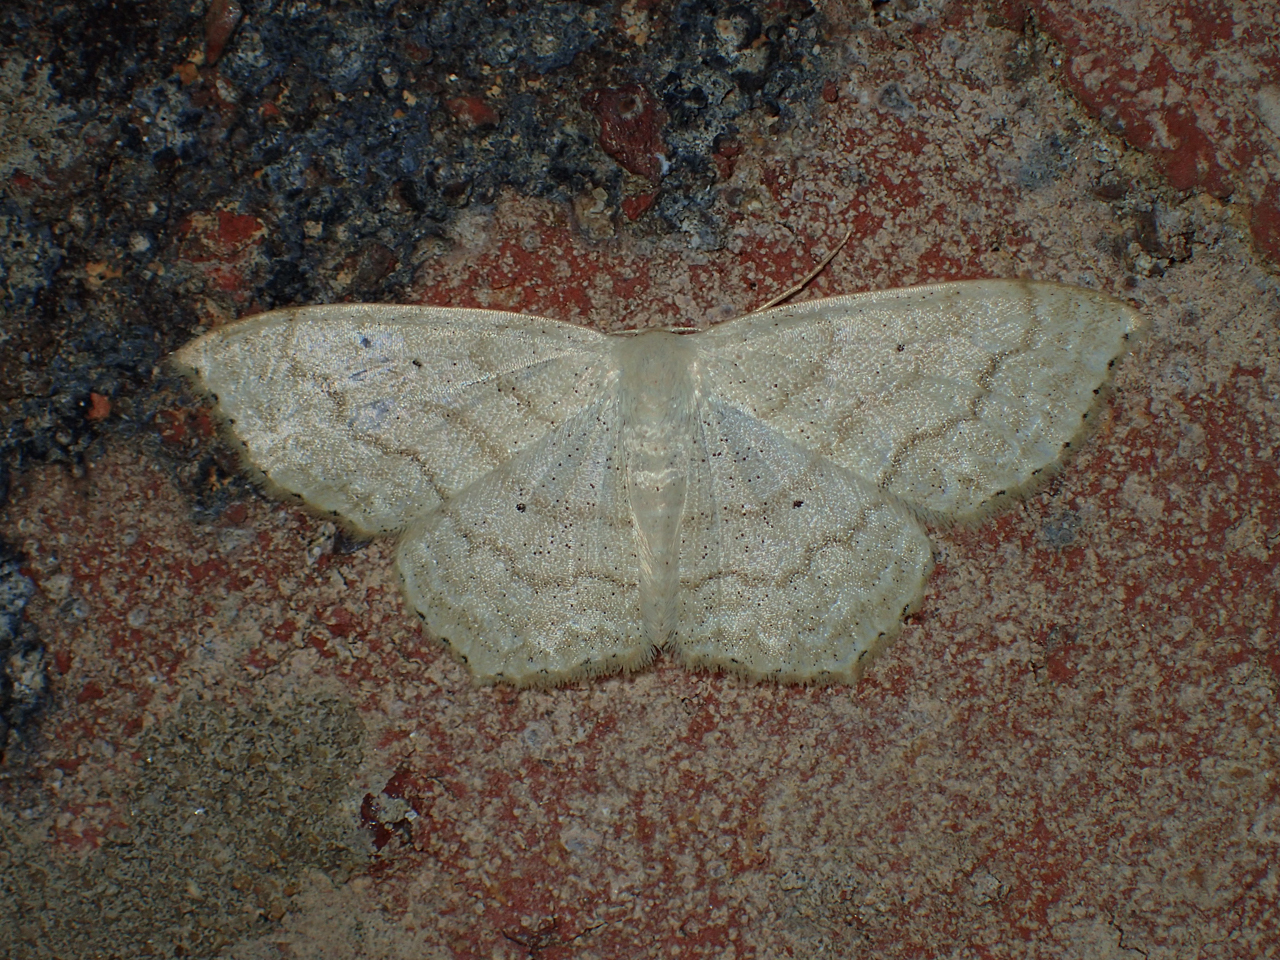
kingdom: Animalia
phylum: Arthropoda
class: Insecta
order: Lepidoptera
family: Geometridae
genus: Scopula
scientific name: Scopula limboundata
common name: Large lace border
